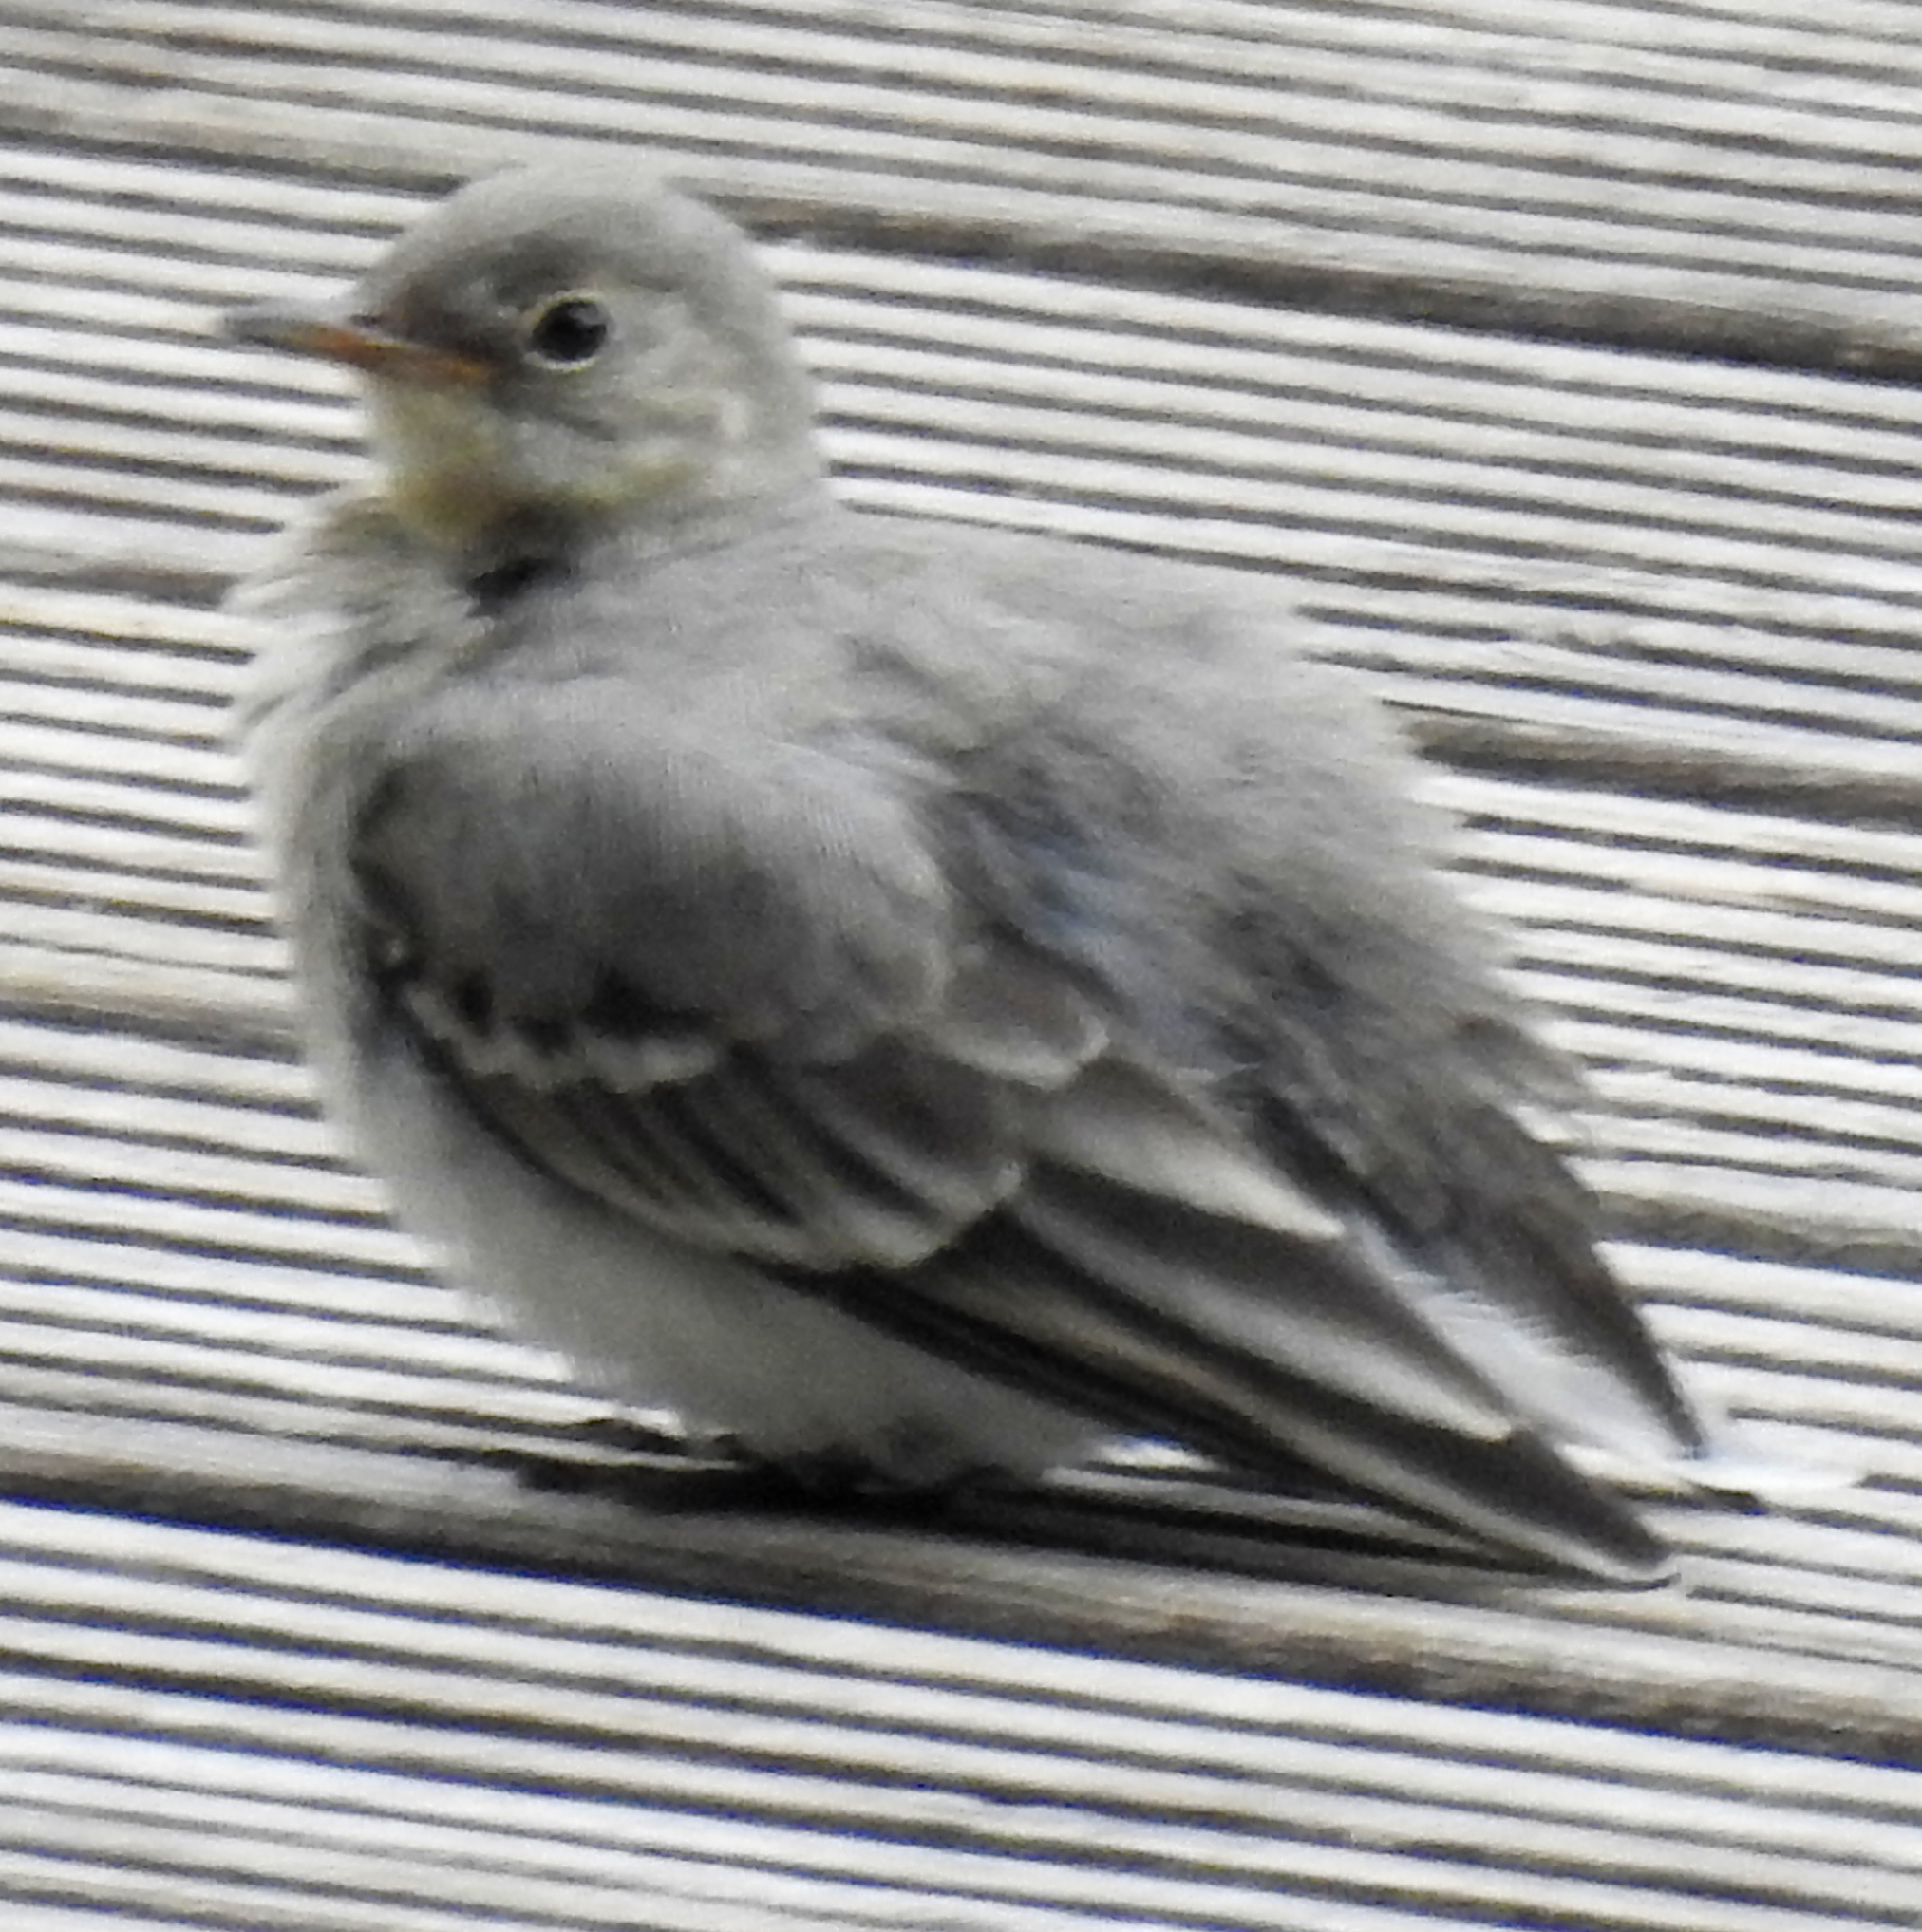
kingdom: Animalia
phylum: Chordata
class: Aves
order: Passeriformes
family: Motacillidae
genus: Motacilla
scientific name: Motacilla alba
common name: White wagtail
